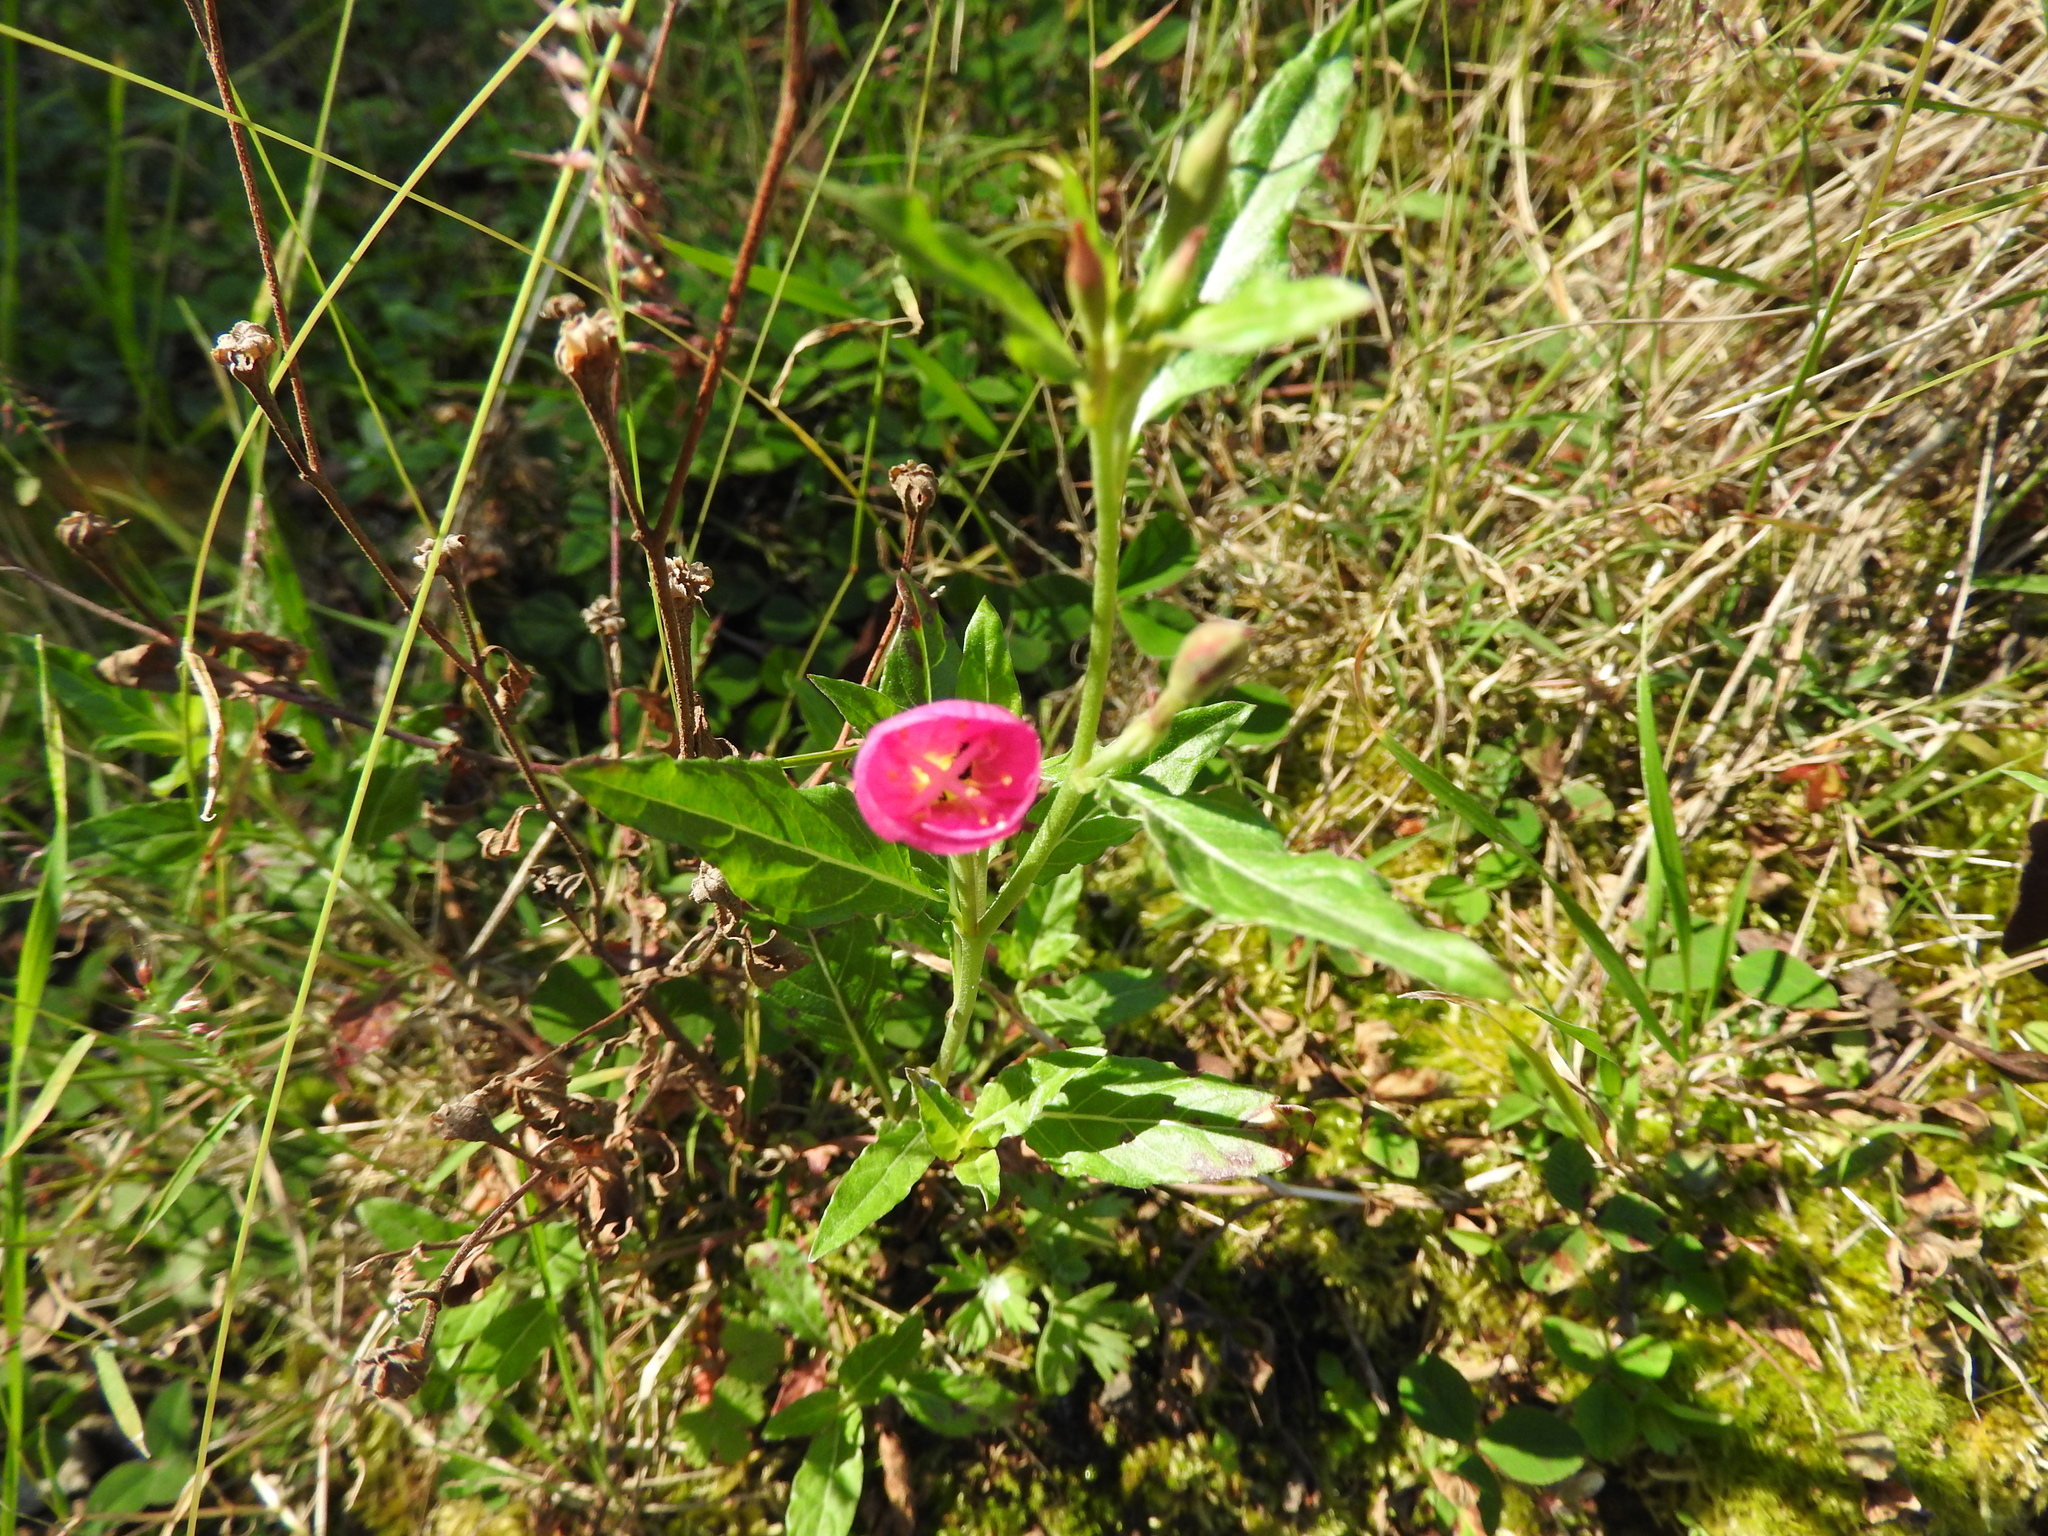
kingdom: Plantae
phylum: Tracheophyta
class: Magnoliopsida
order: Myrtales
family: Onagraceae
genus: Oenothera
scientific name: Oenothera rosea
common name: Rosy evening-primrose
